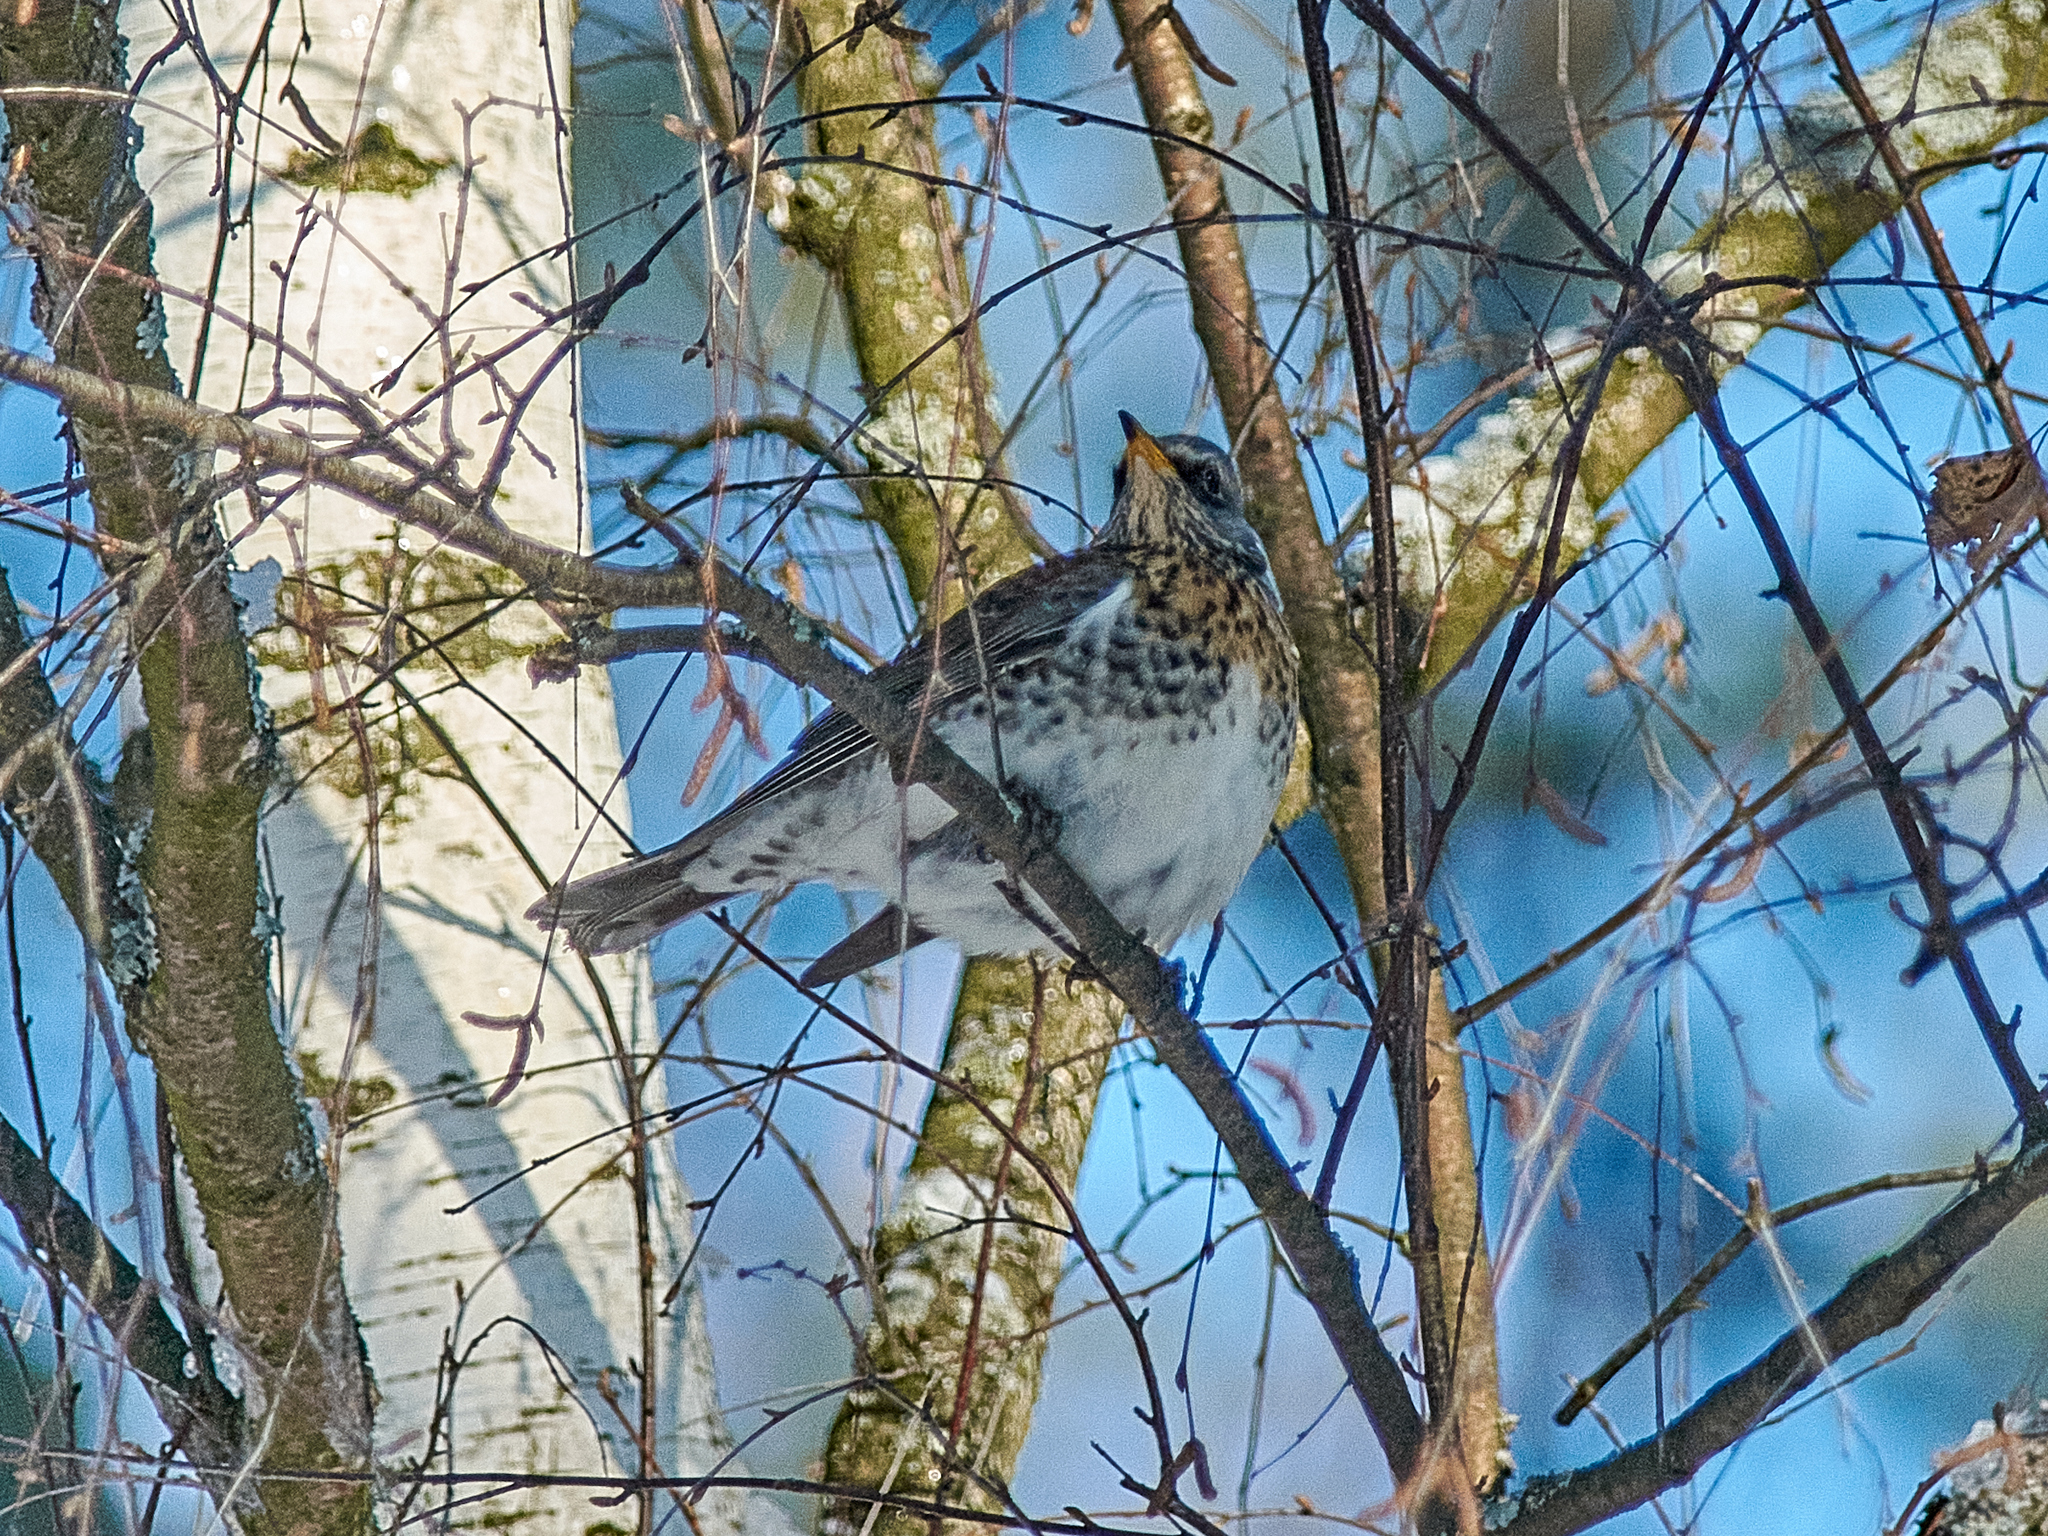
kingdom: Animalia
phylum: Chordata
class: Aves
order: Passeriformes
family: Turdidae
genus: Turdus
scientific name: Turdus pilaris
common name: Fieldfare
